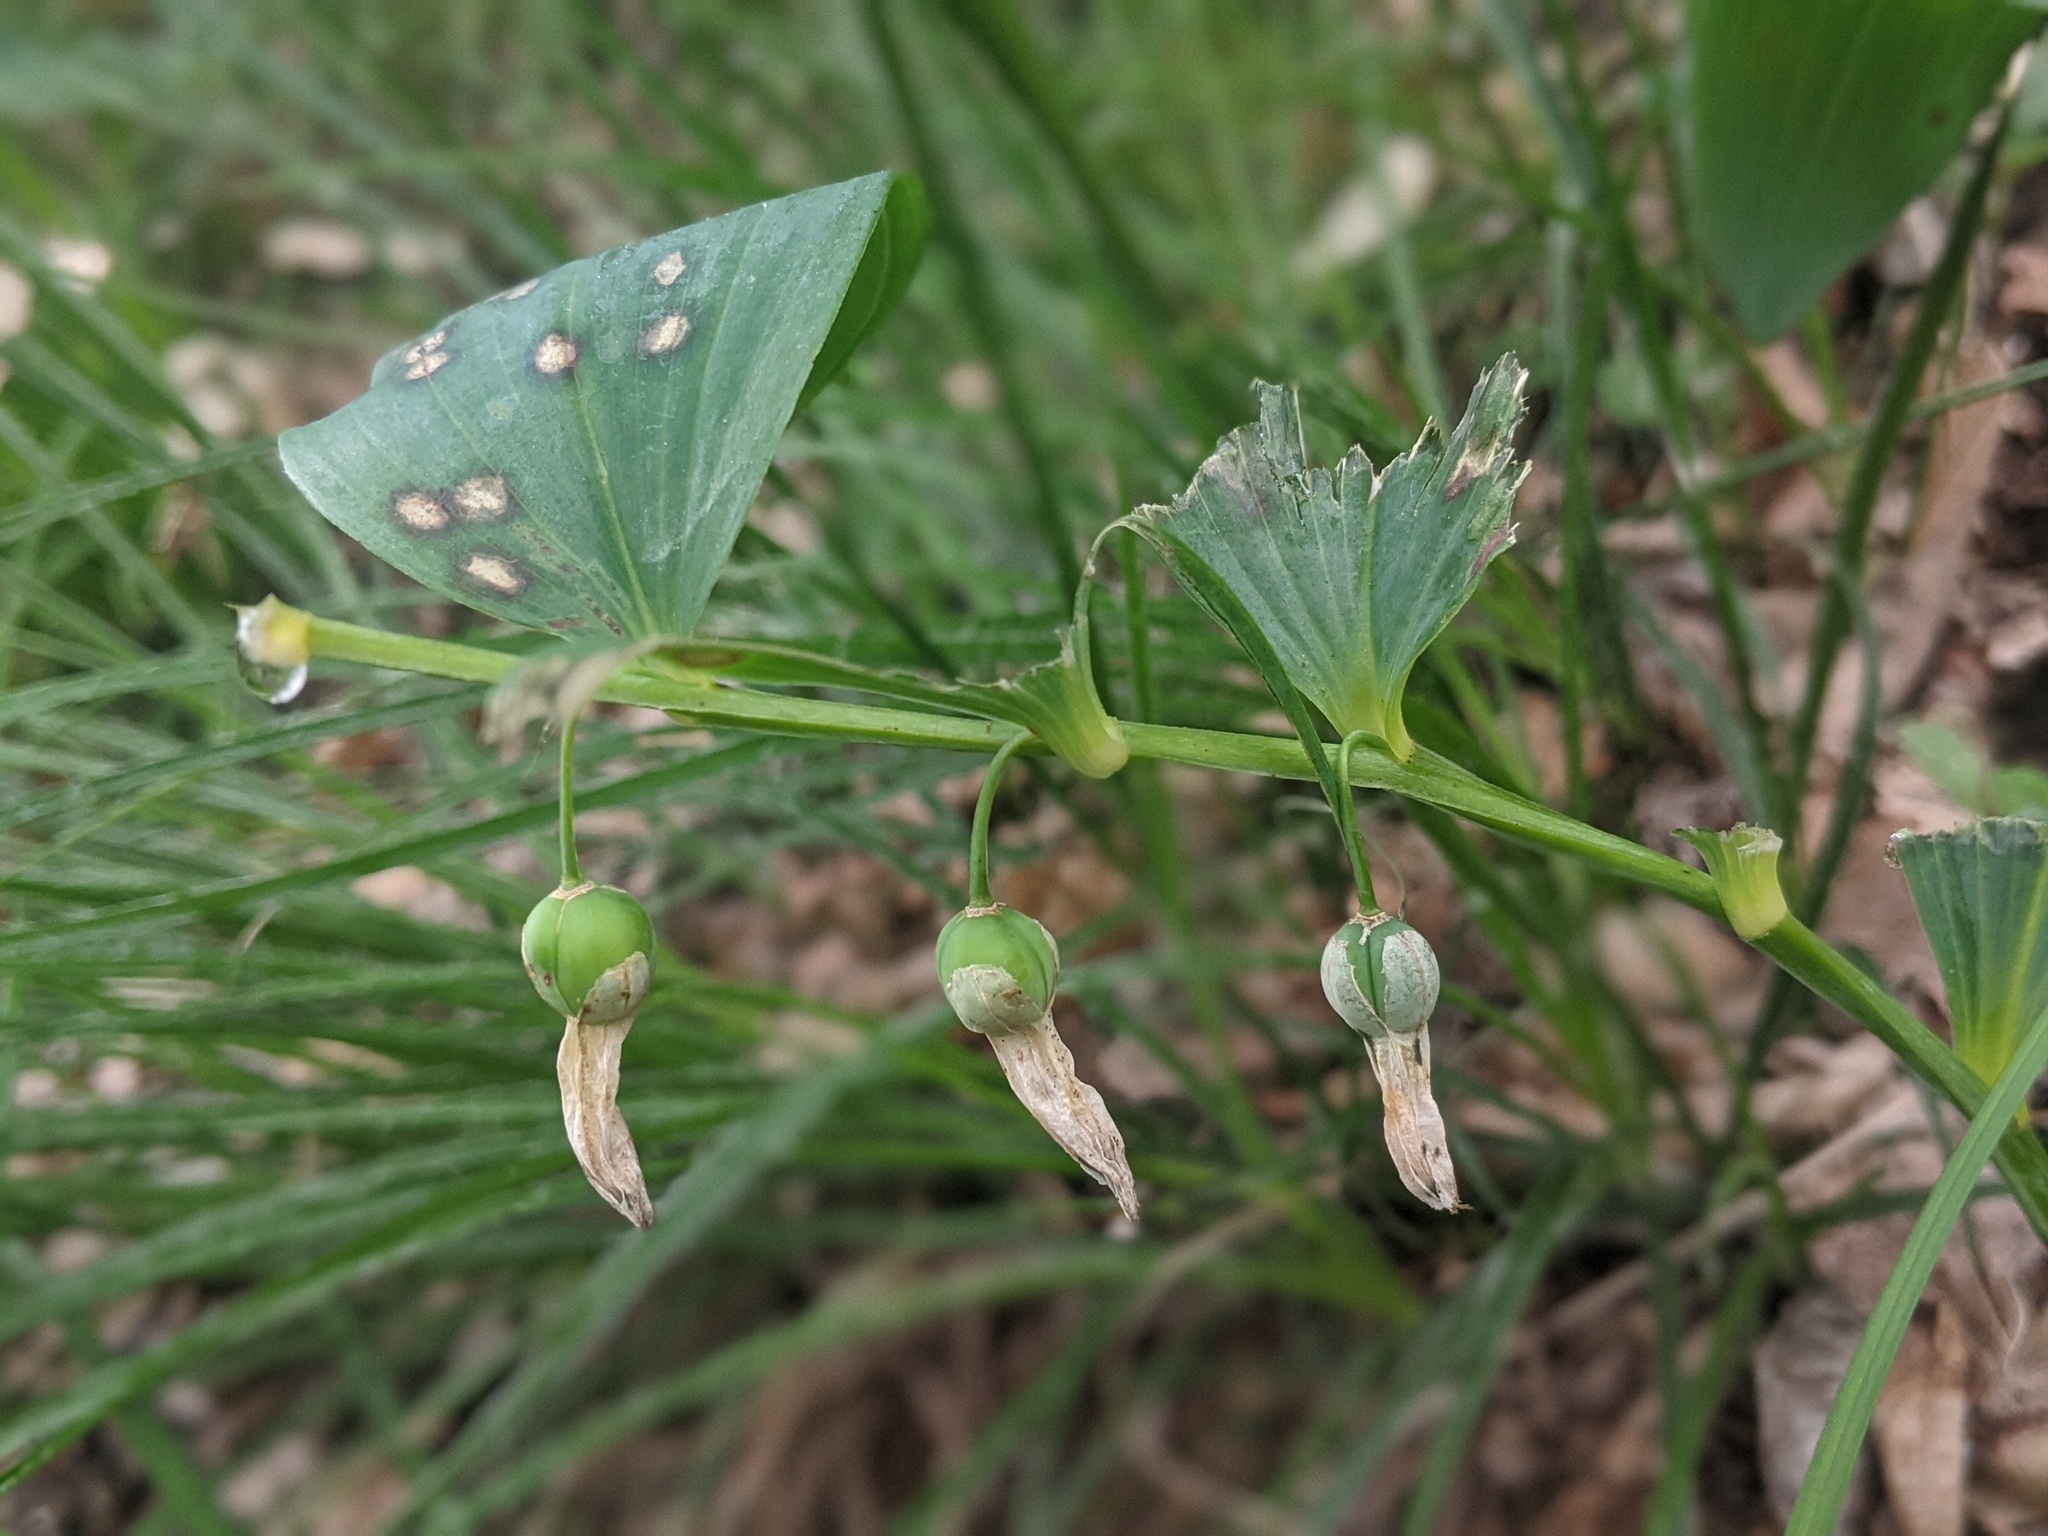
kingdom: Plantae
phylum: Tracheophyta
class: Liliopsida
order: Asparagales
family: Asparagaceae
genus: Polygonatum
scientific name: Polygonatum odoratum
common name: Angular solomon's-seal
